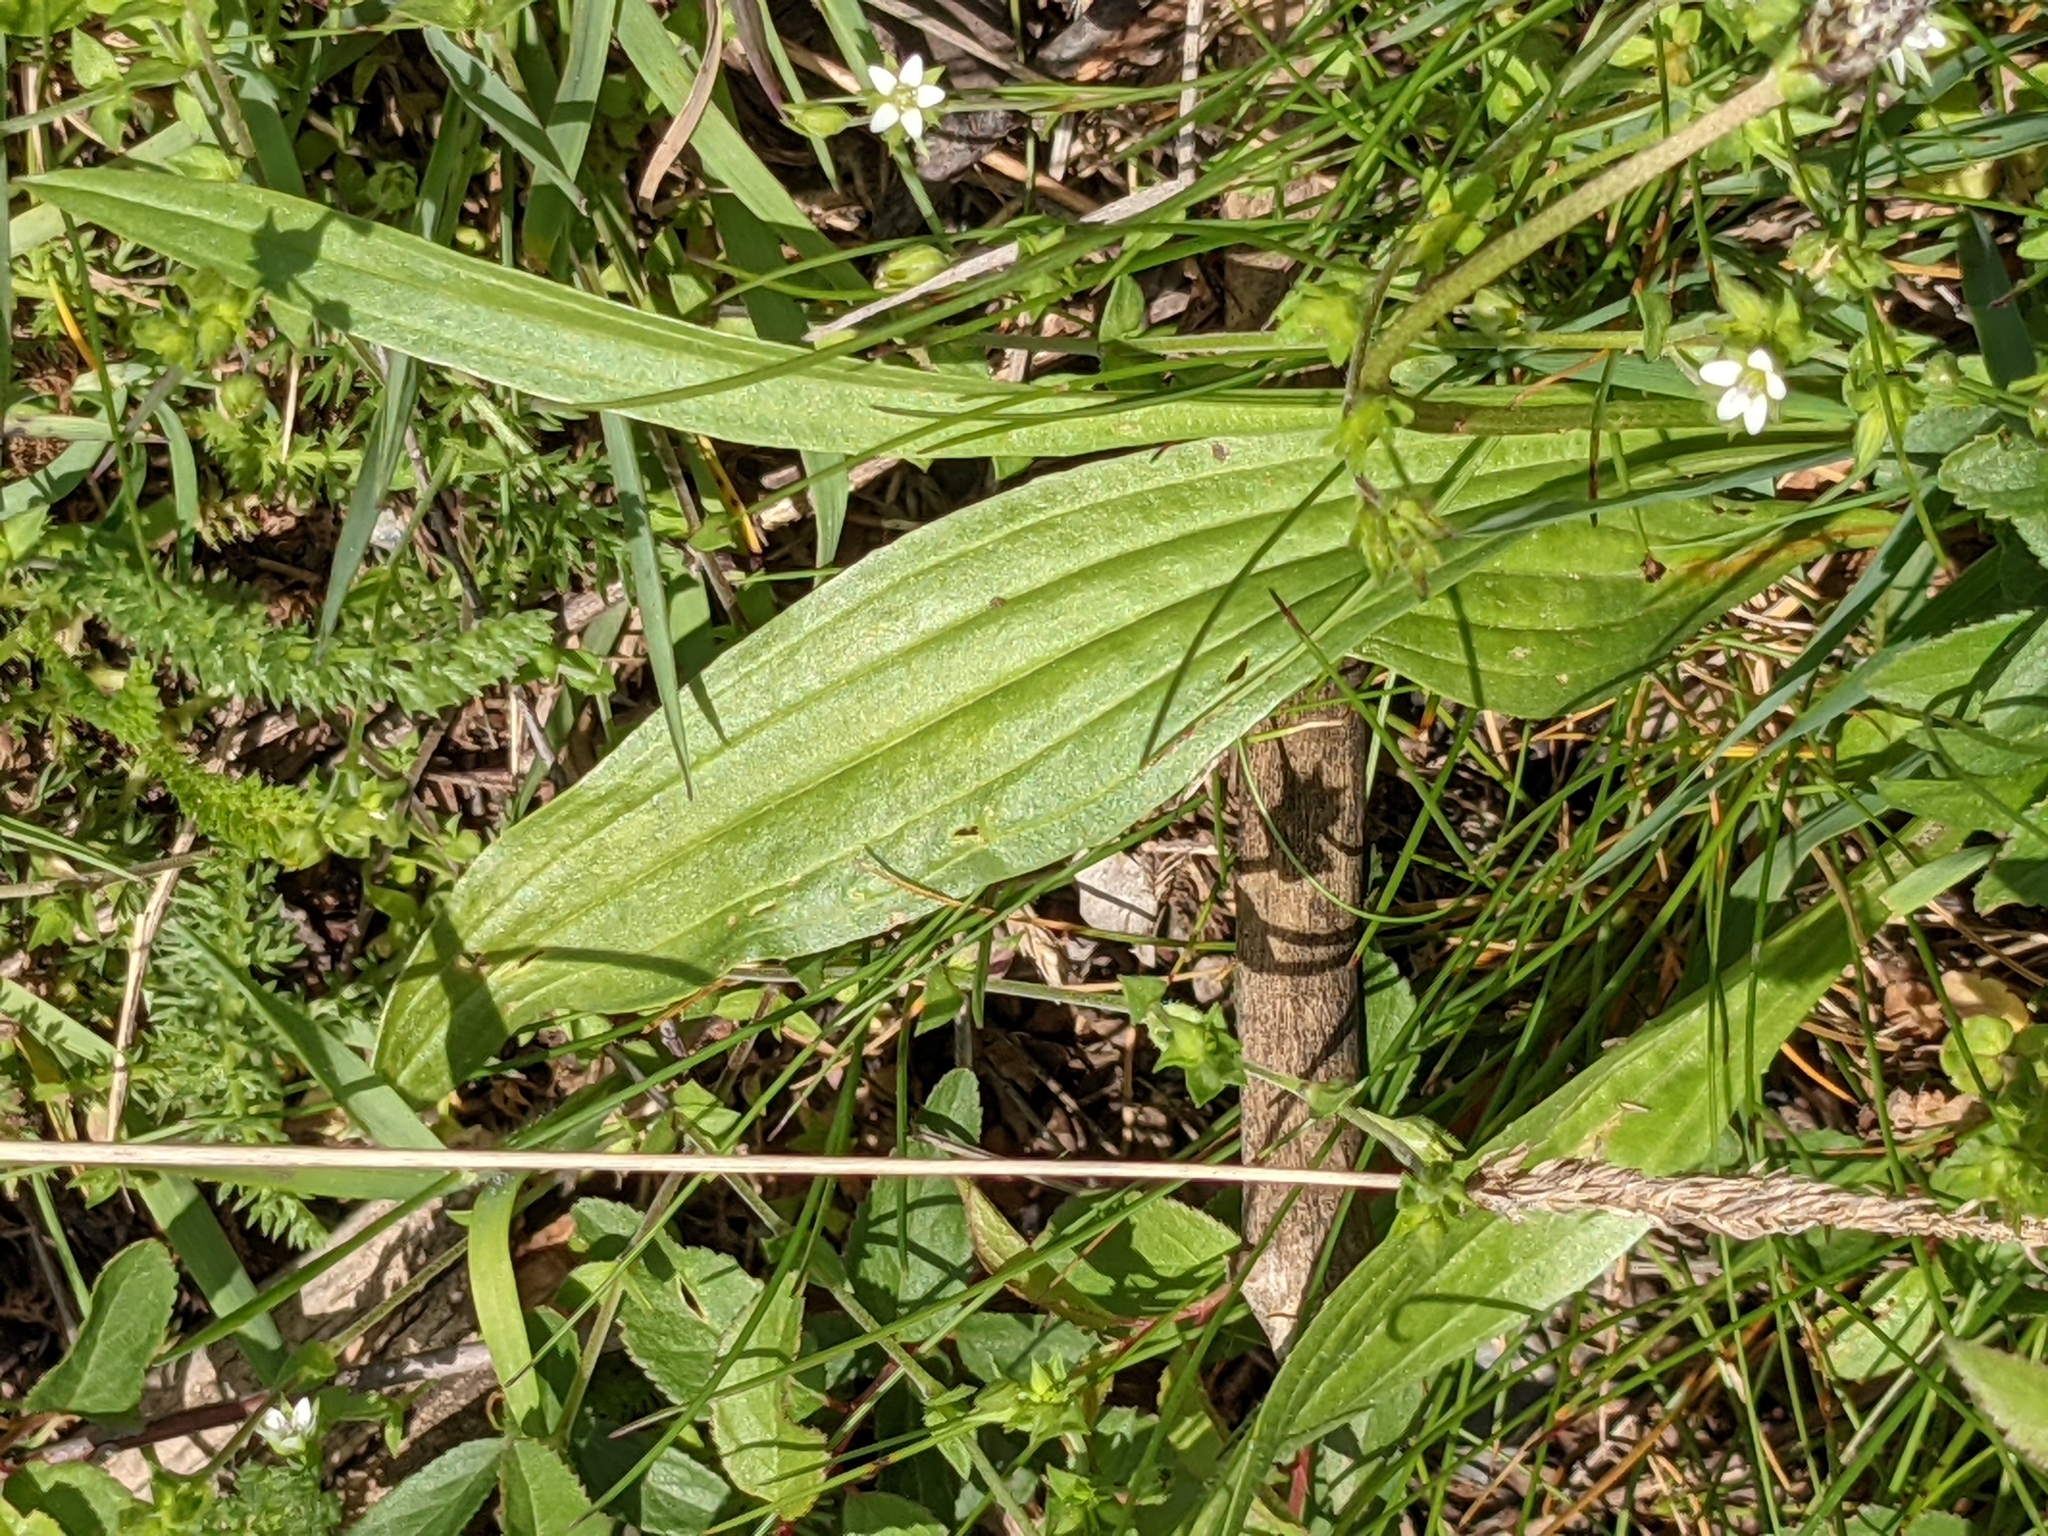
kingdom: Plantae
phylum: Tracheophyta
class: Magnoliopsida
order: Lamiales
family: Plantaginaceae
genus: Plantago
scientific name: Plantago lanceolata
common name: Ribwort plantain
